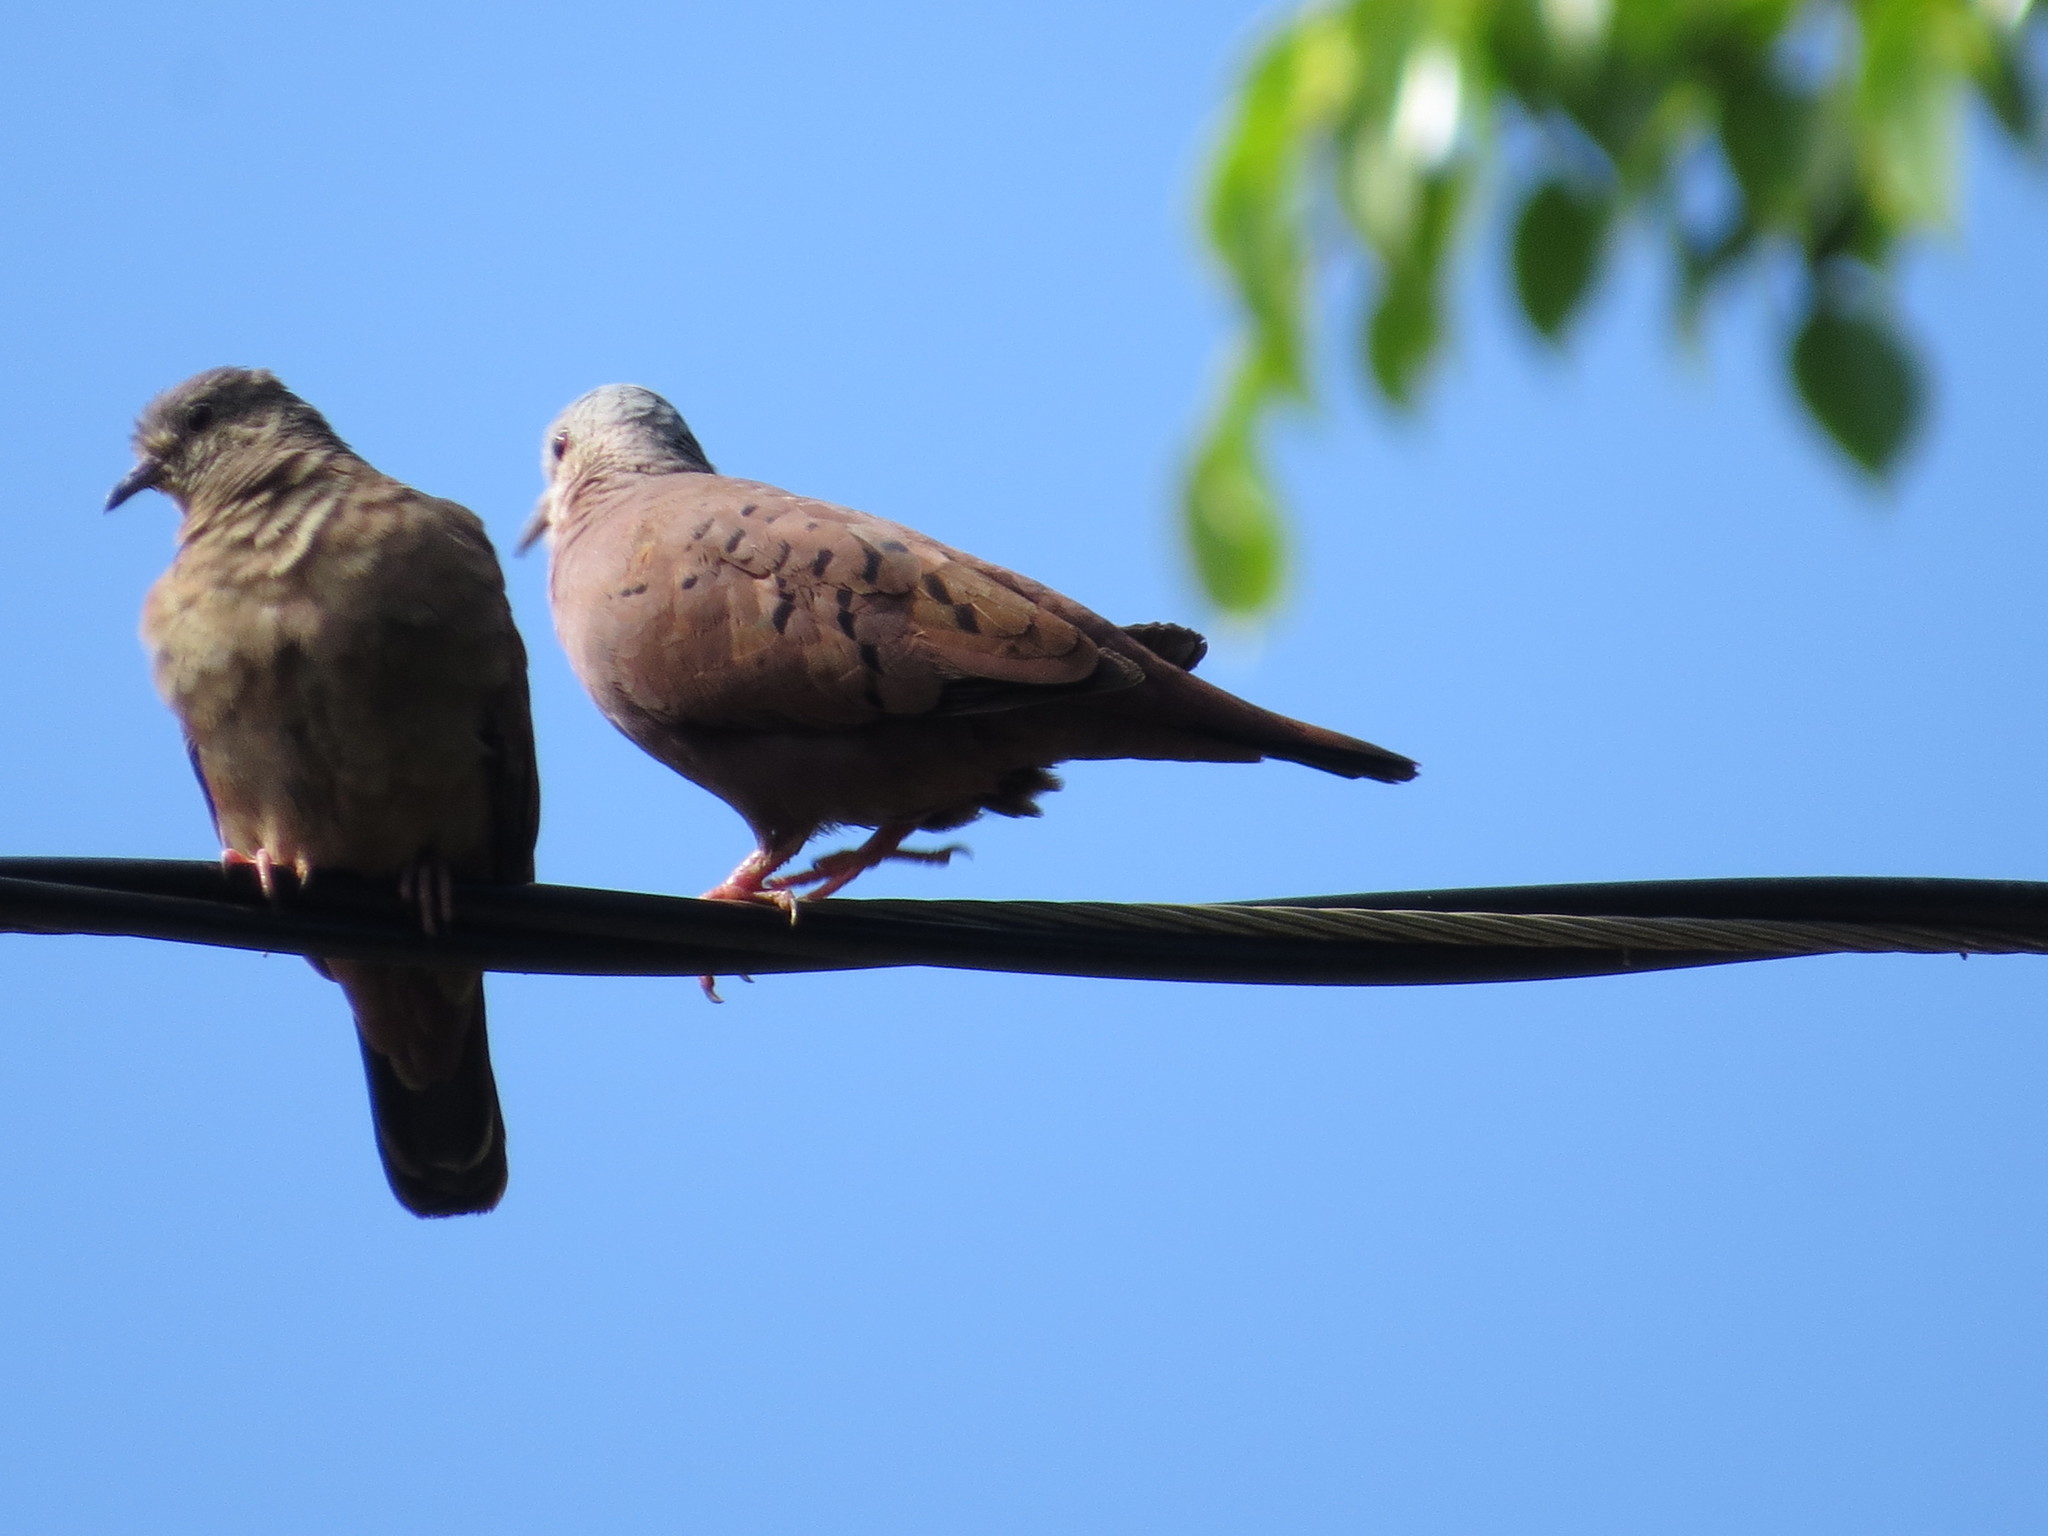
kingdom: Animalia
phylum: Chordata
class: Aves
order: Columbiformes
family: Columbidae
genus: Columbina
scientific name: Columbina talpacoti
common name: Ruddy ground dove
